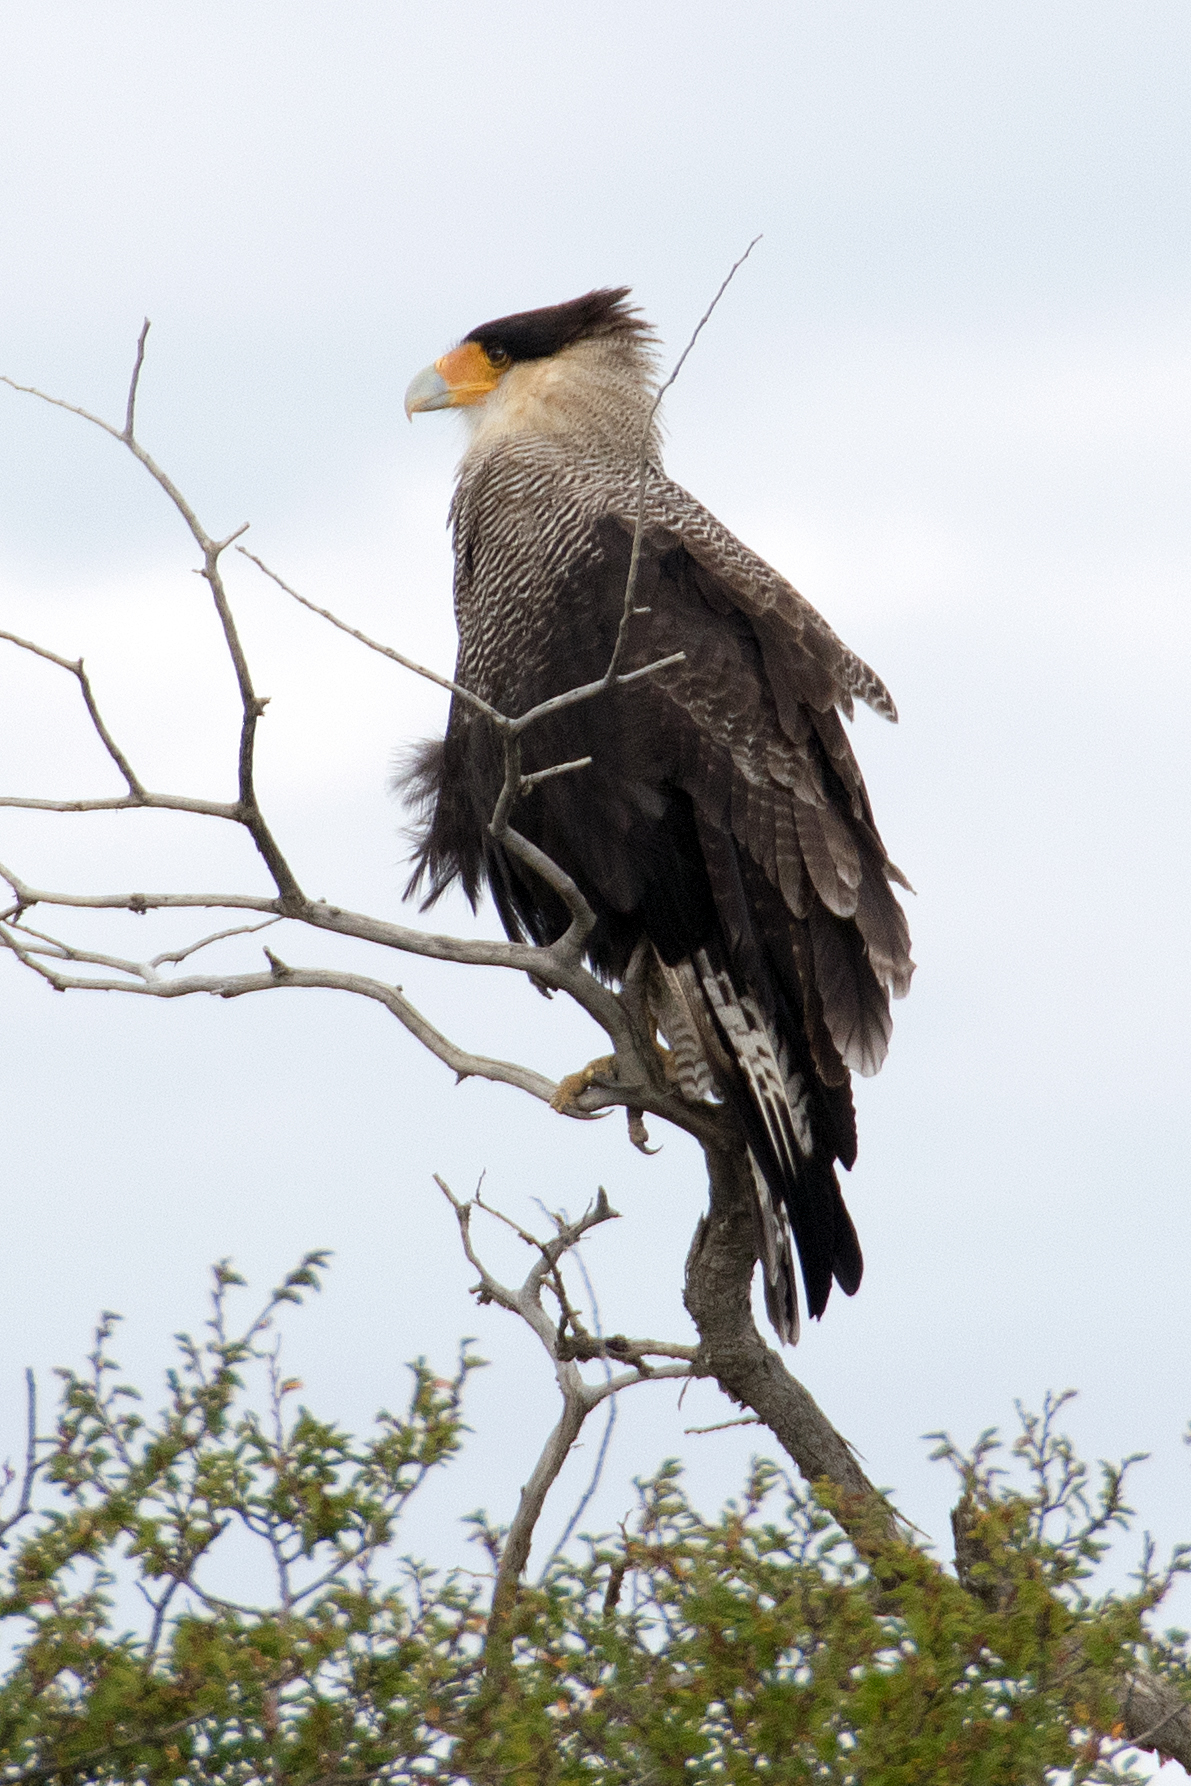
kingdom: Animalia
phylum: Chordata
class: Aves
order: Falconiformes
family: Falconidae
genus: Caracara
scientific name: Caracara plancus
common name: Southern caracara
